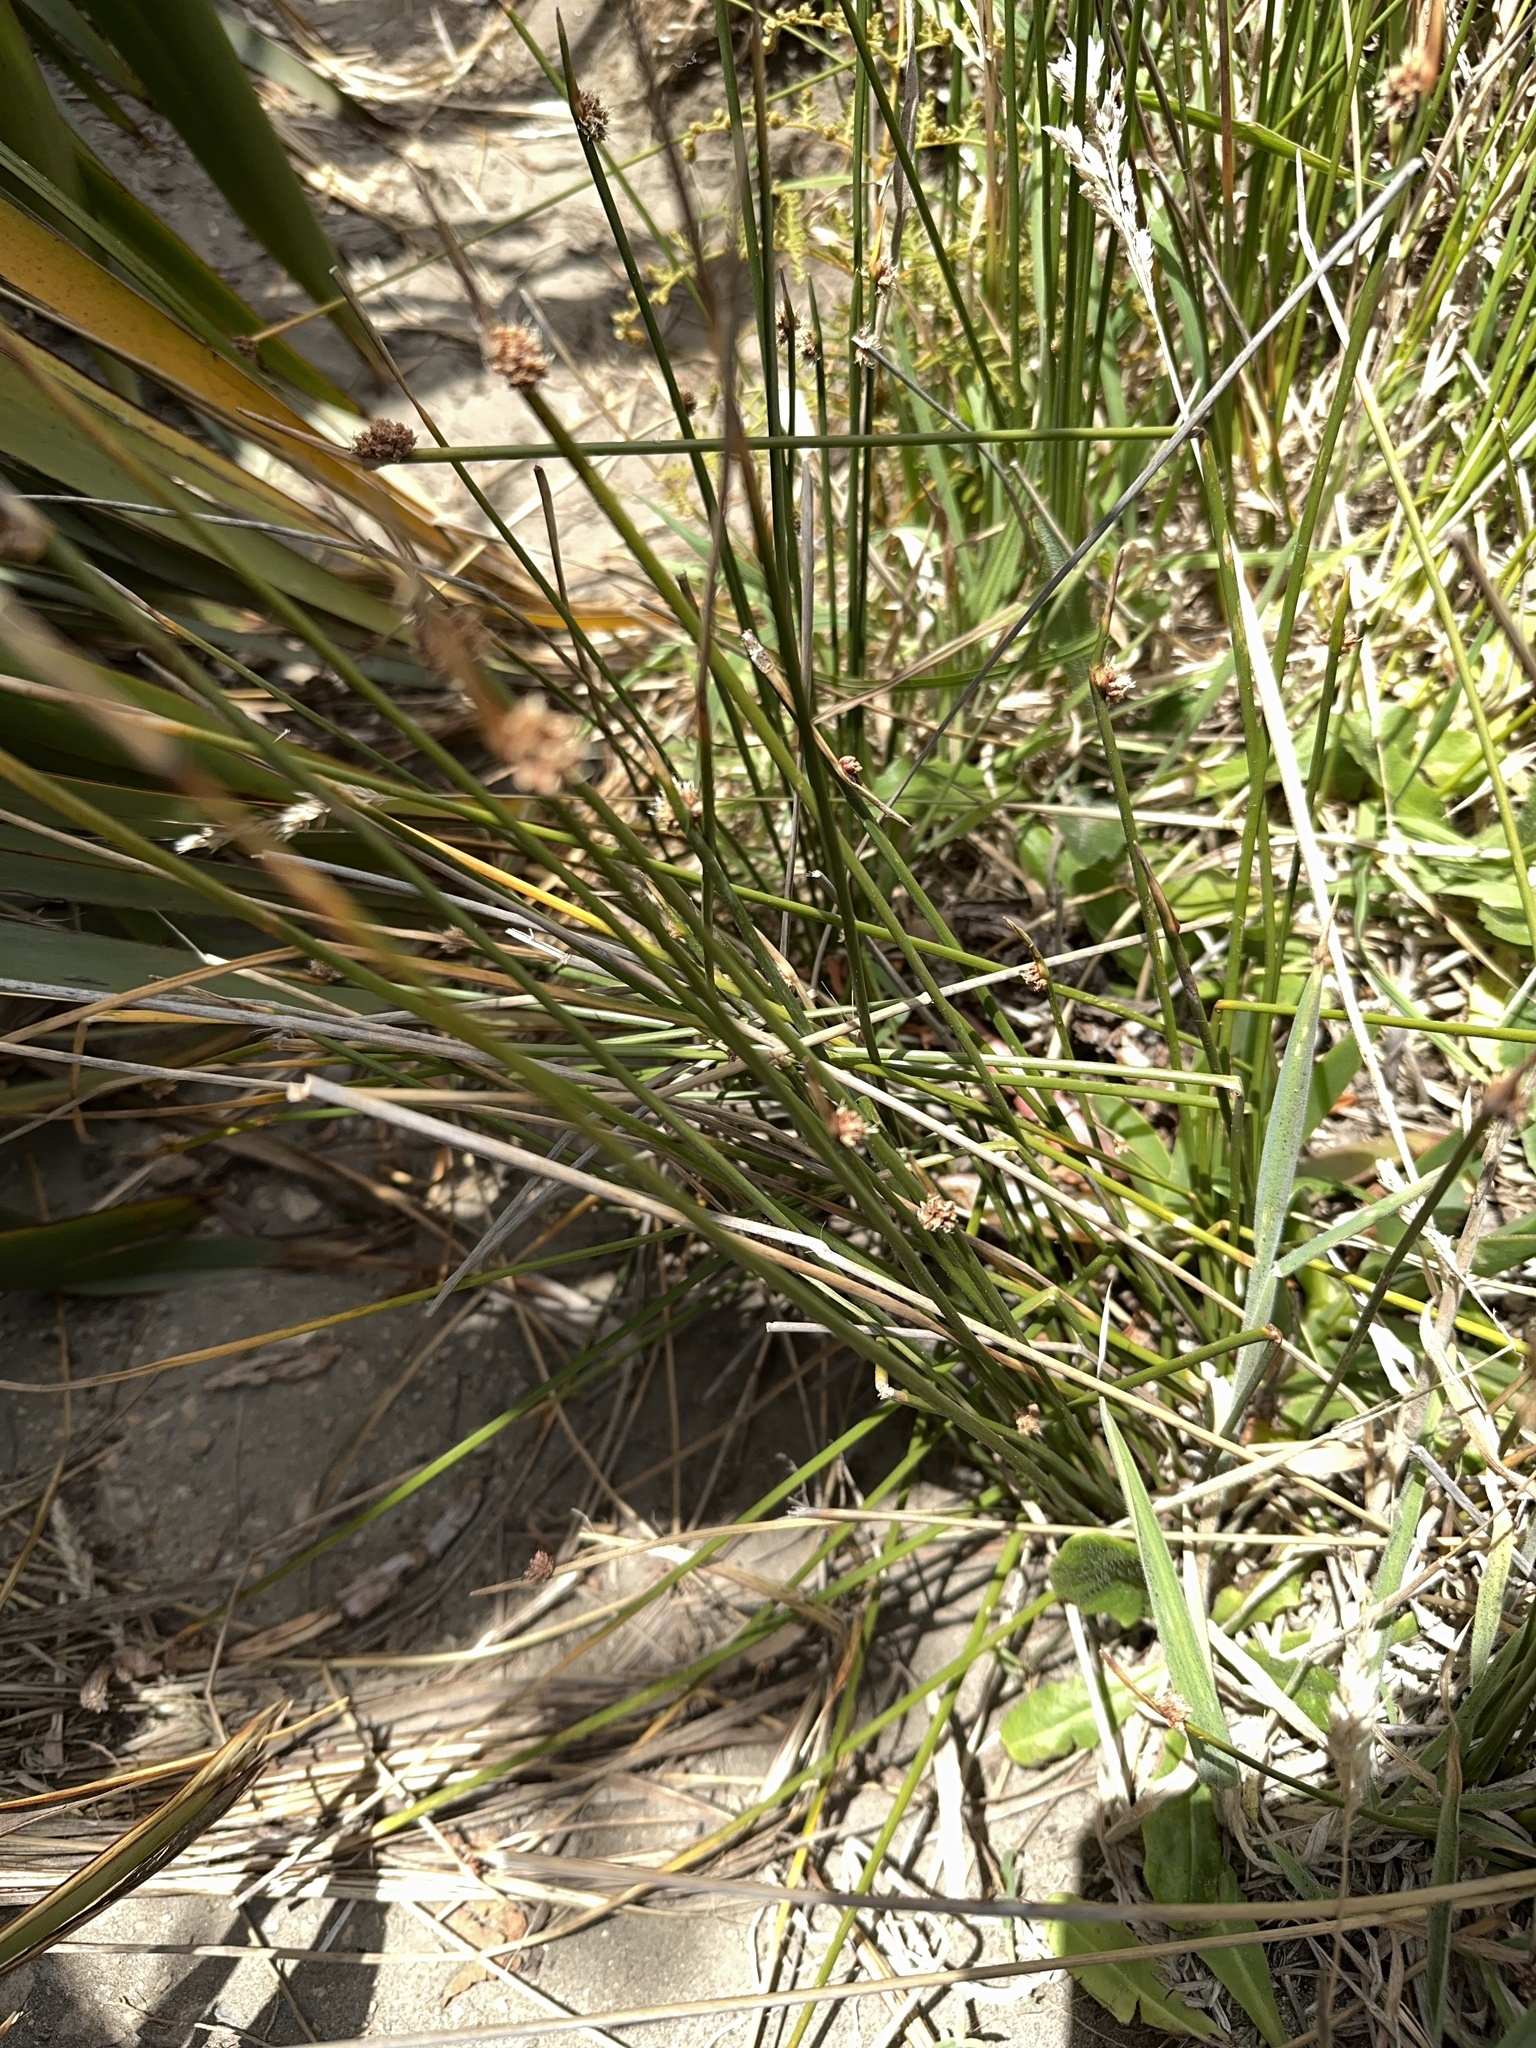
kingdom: Plantae
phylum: Tracheophyta
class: Liliopsida
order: Poales
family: Cyperaceae
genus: Ficinia
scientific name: Ficinia nodosa
